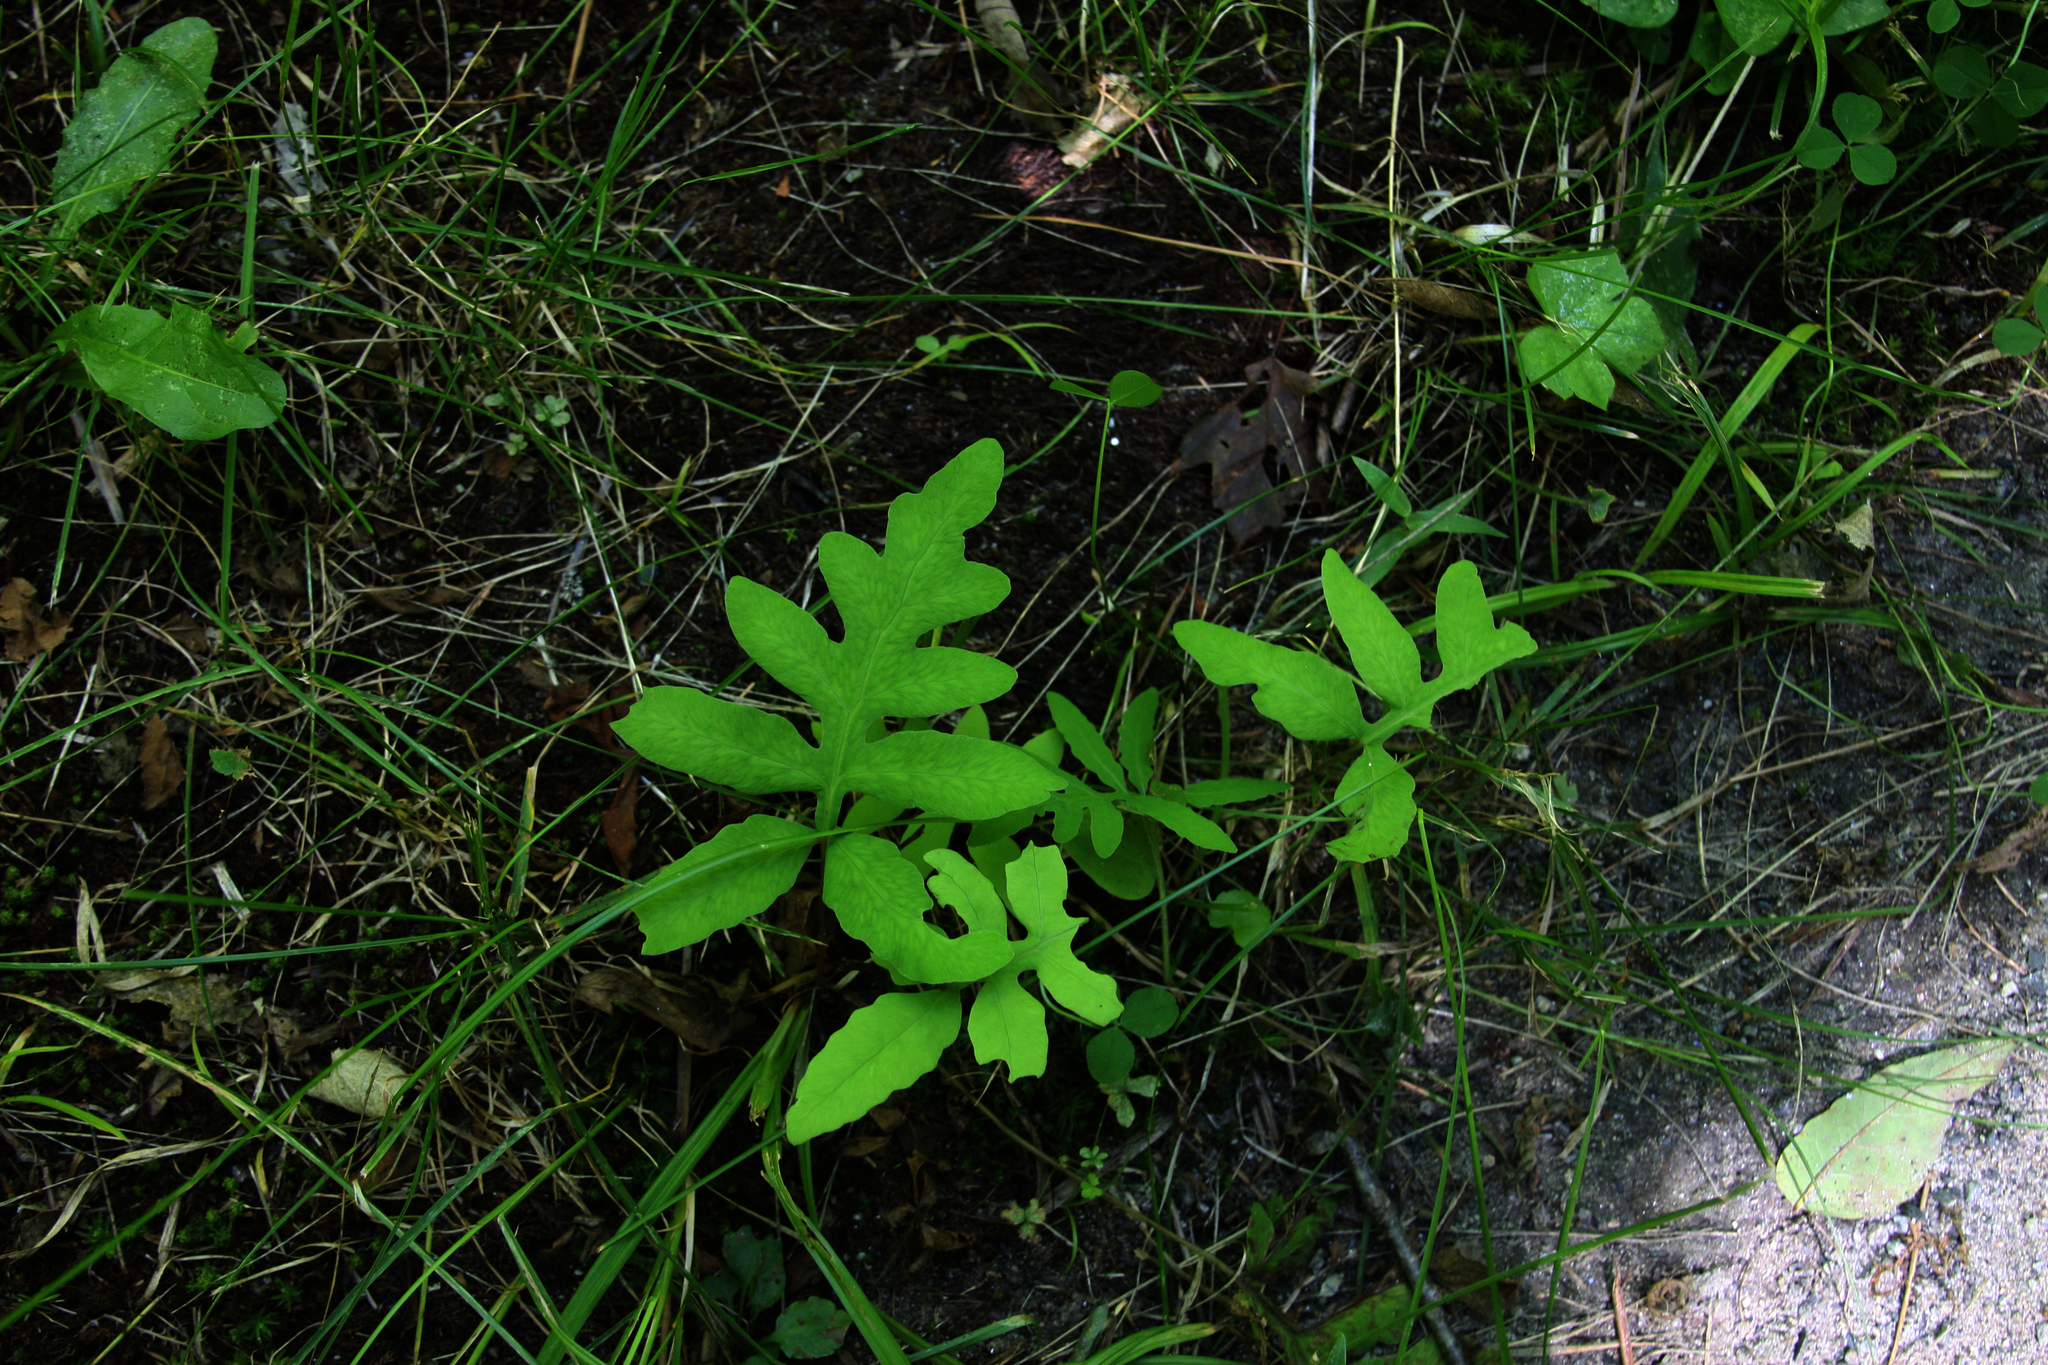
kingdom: Plantae
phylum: Tracheophyta
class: Polypodiopsida
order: Polypodiales
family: Onocleaceae
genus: Onoclea
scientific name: Onoclea sensibilis
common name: Sensitive fern
